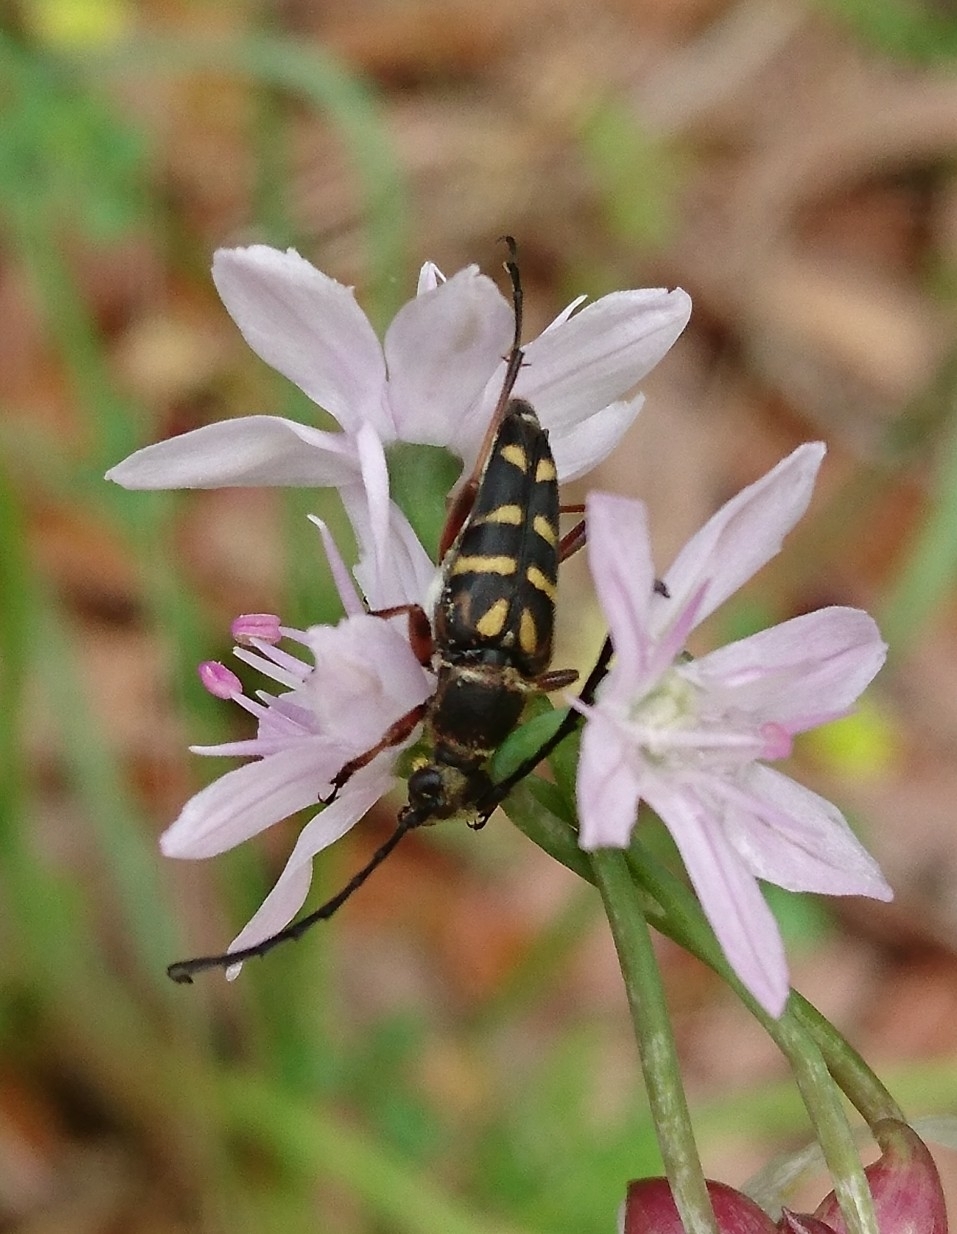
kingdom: Animalia
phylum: Arthropoda
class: Insecta
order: Coleoptera
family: Cerambycidae
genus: Typocerus
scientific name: Typocerus zebra
